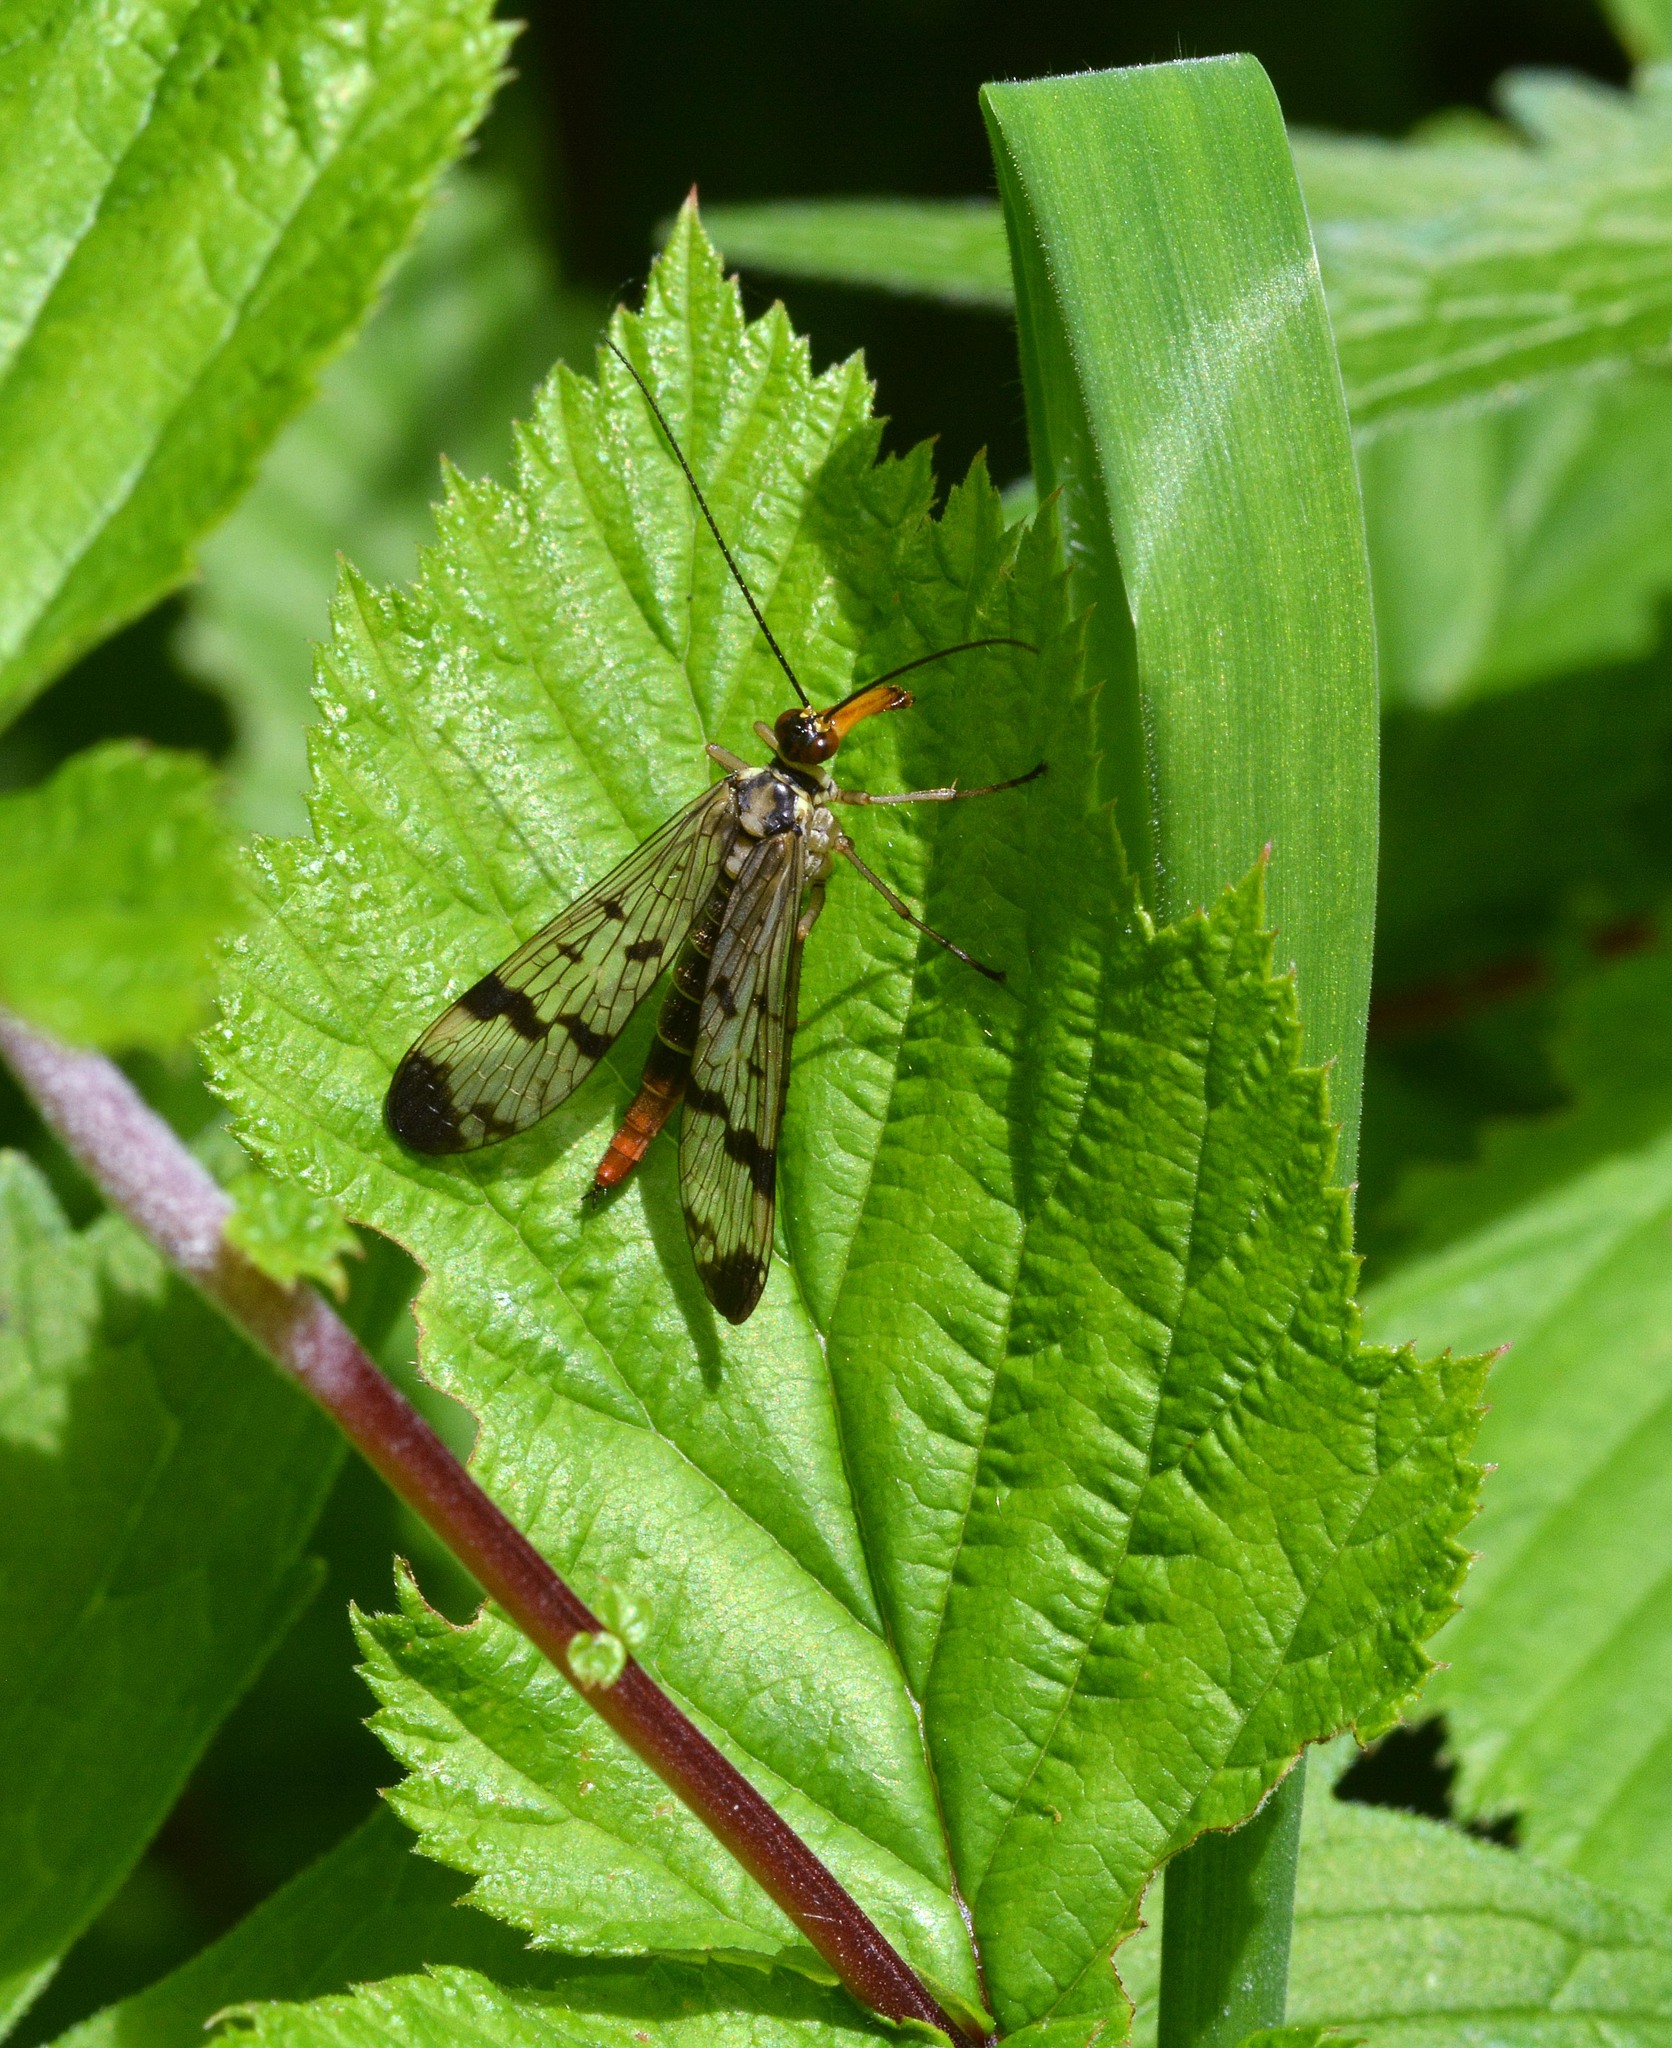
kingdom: Animalia
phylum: Arthropoda
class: Insecta
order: Mecoptera
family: Panorpidae
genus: Panorpa
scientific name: Panorpa communis
